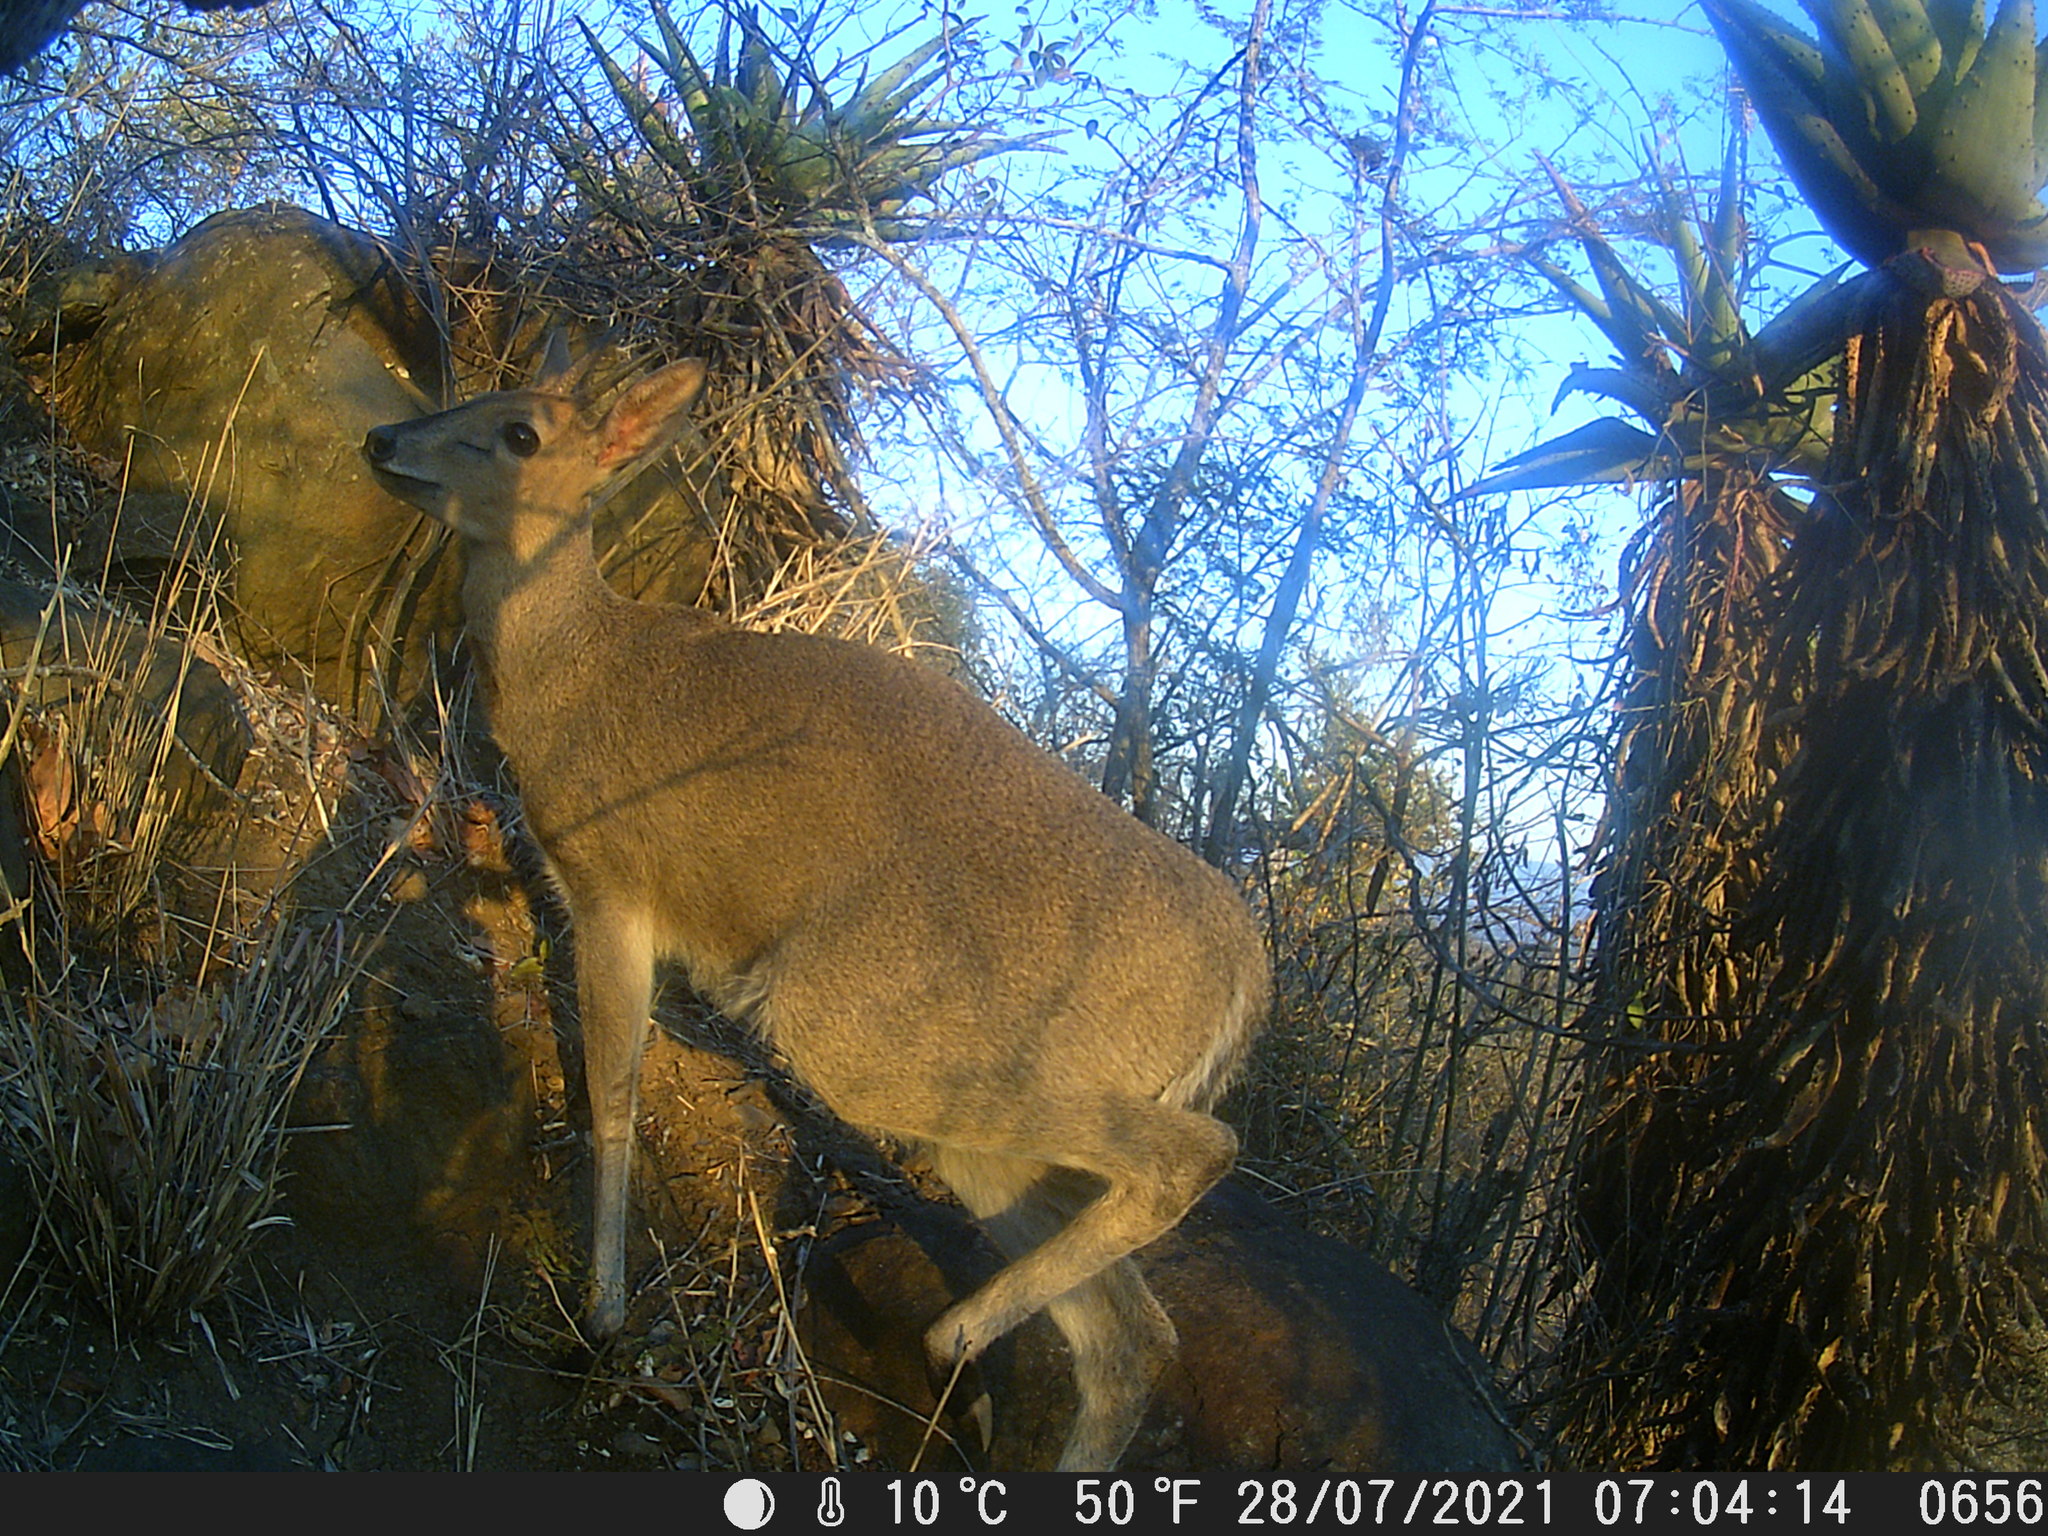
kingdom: Animalia
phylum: Chordata
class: Mammalia
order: Artiodactyla
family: Bovidae
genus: Sylvicapra
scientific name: Sylvicapra grimmia
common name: Bush duiker
